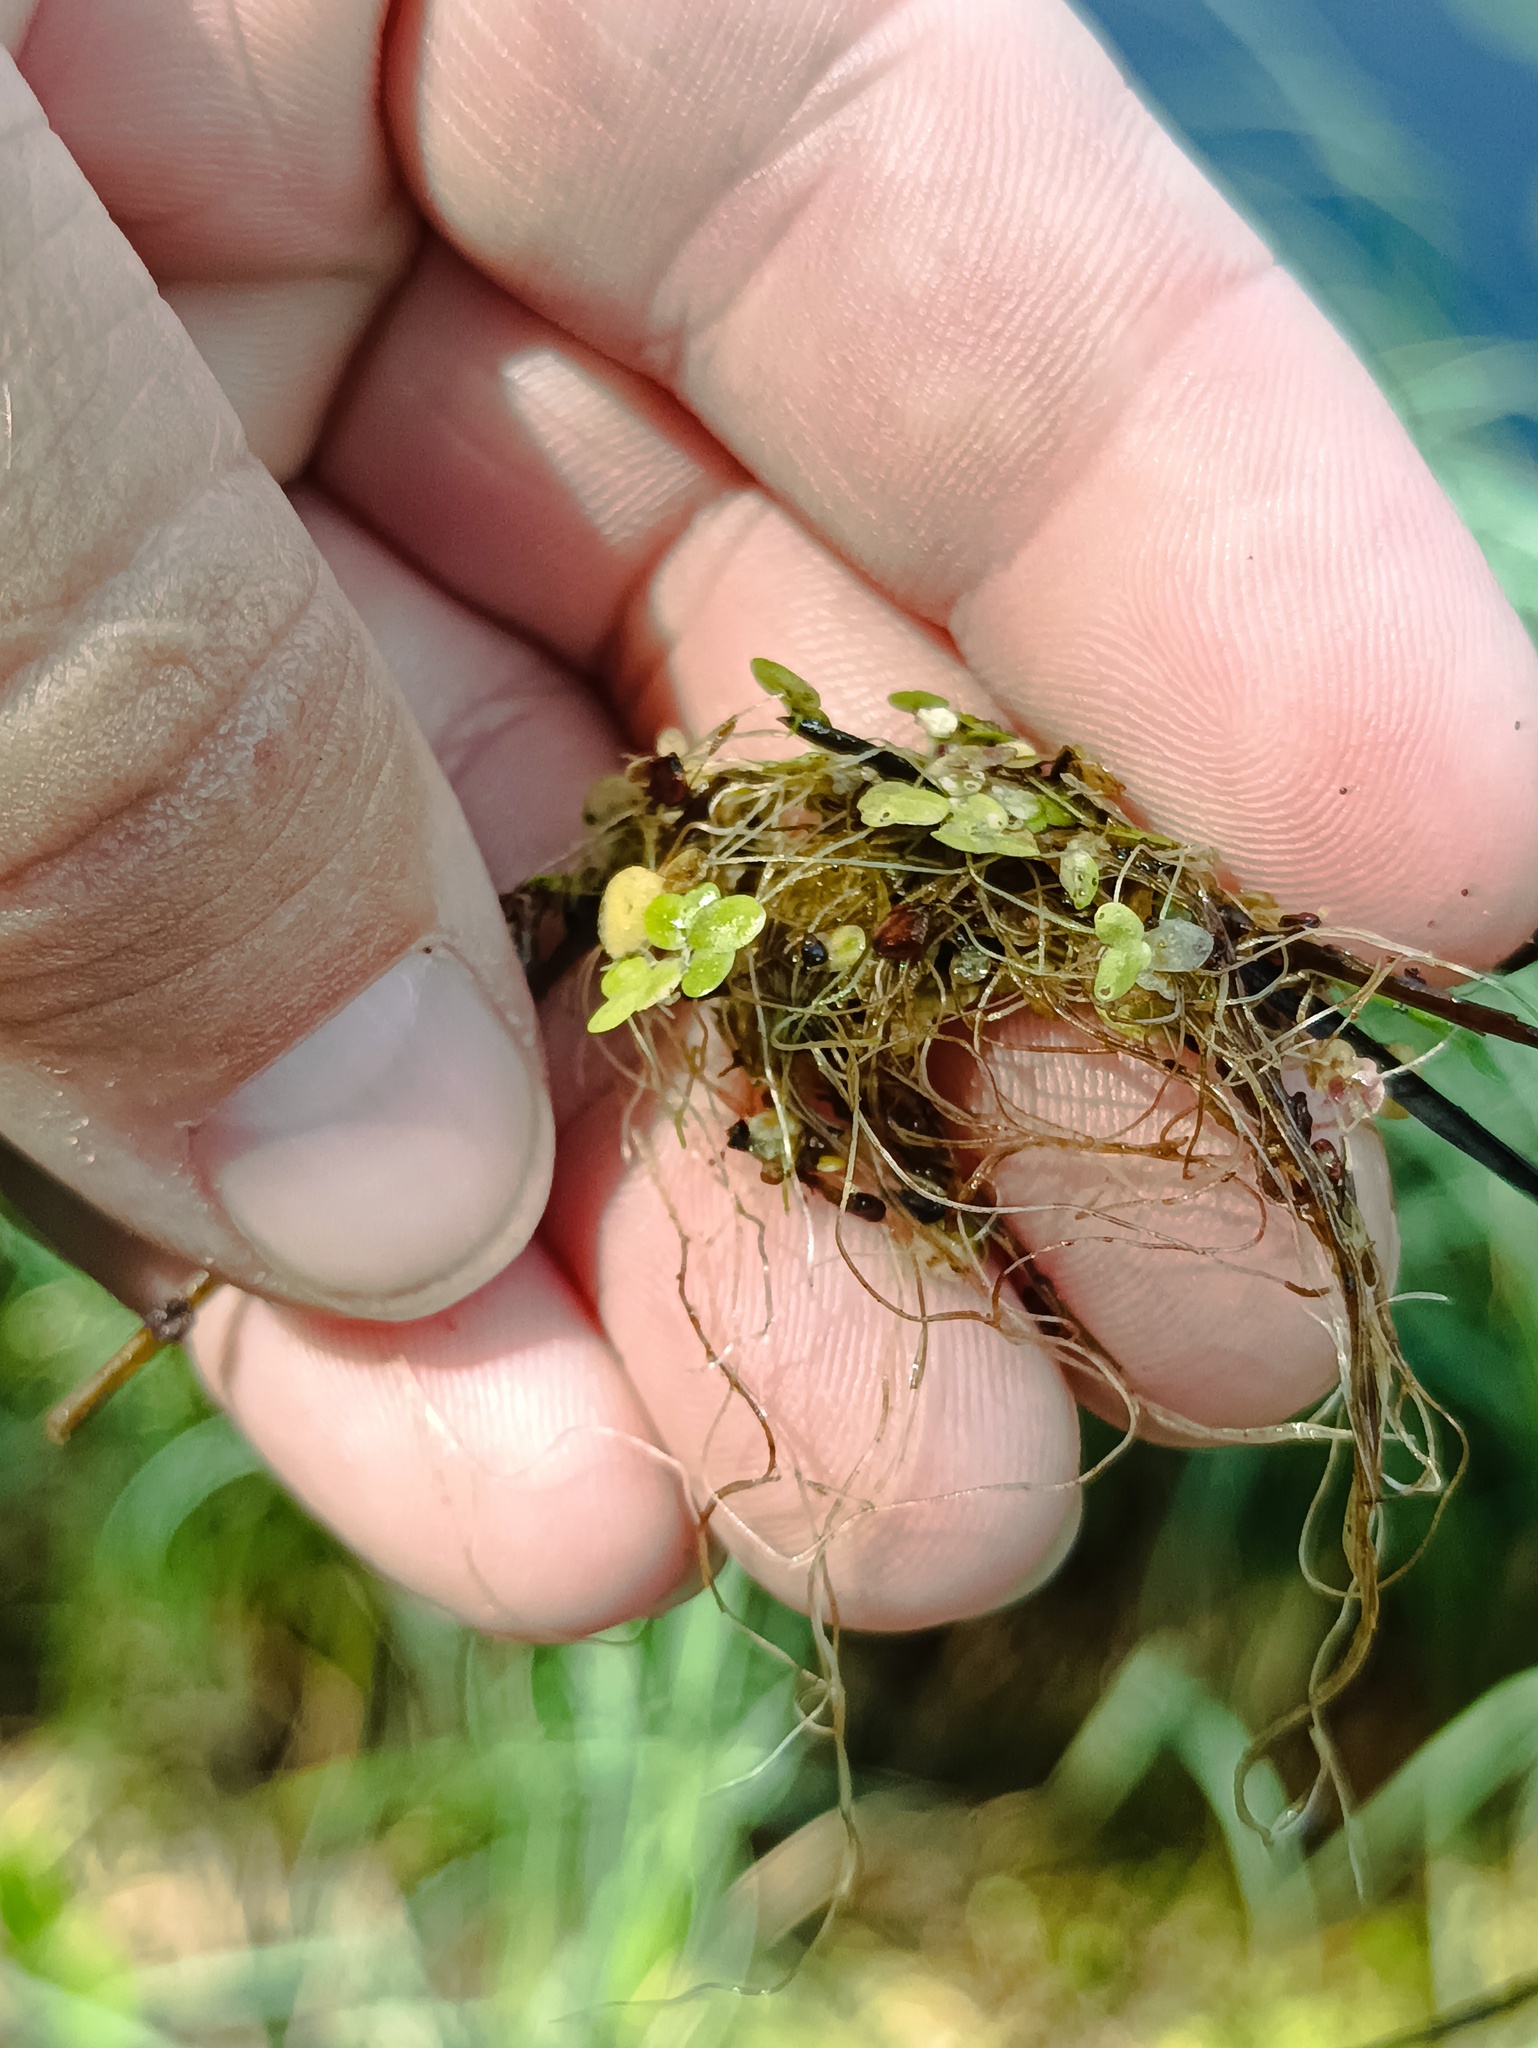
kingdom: Plantae
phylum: Tracheophyta
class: Liliopsida
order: Alismatales
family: Araceae
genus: Lemna
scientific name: Lemna minor
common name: Common duckweed
